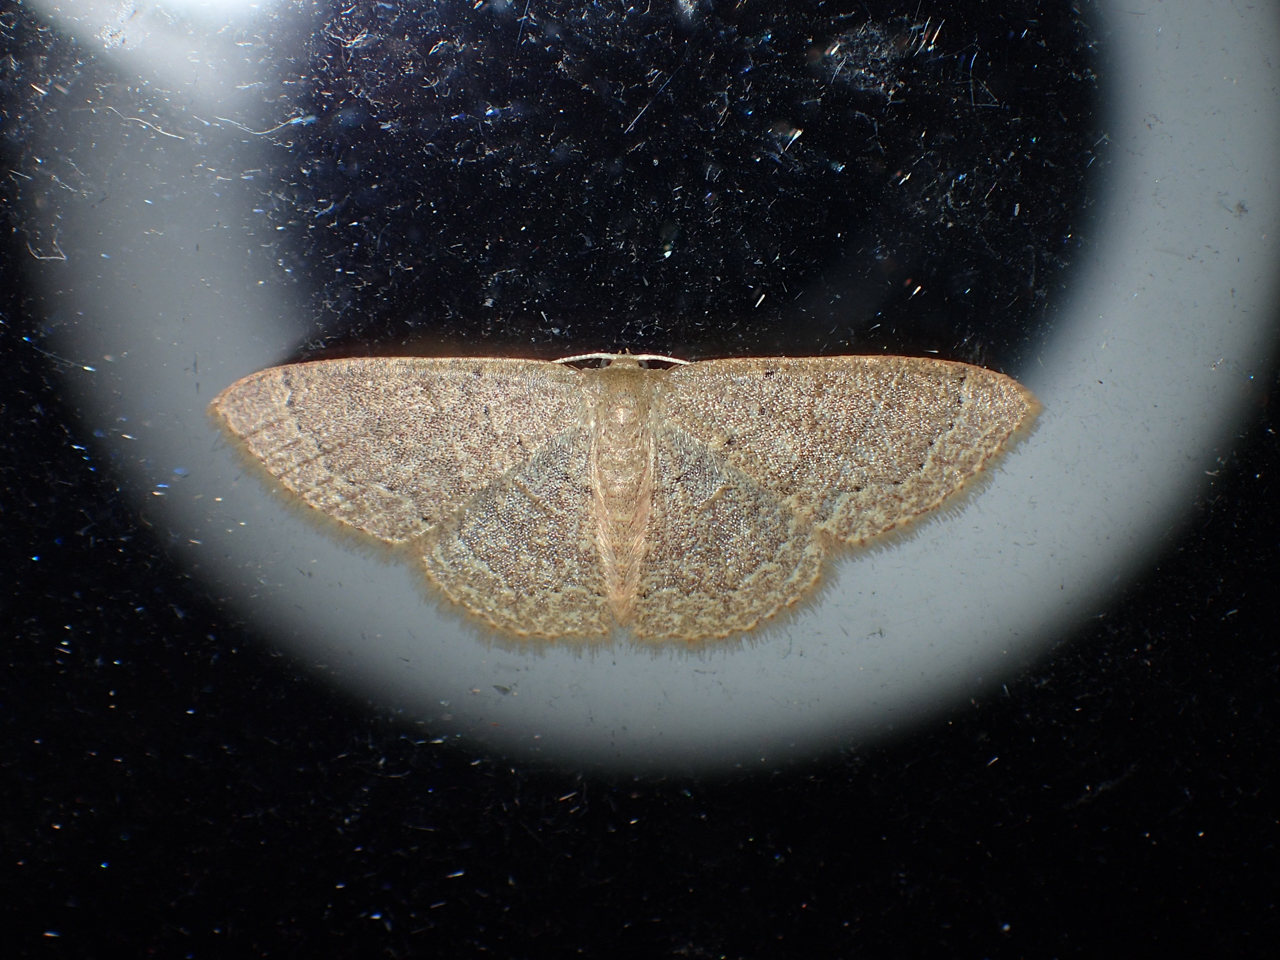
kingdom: Animalia
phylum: Arthropoda
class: Insecta
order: Lepidoptera
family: Geometridae
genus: Pleuroprucha
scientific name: Pleuroprucha insulsaria
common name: Common tan wave
